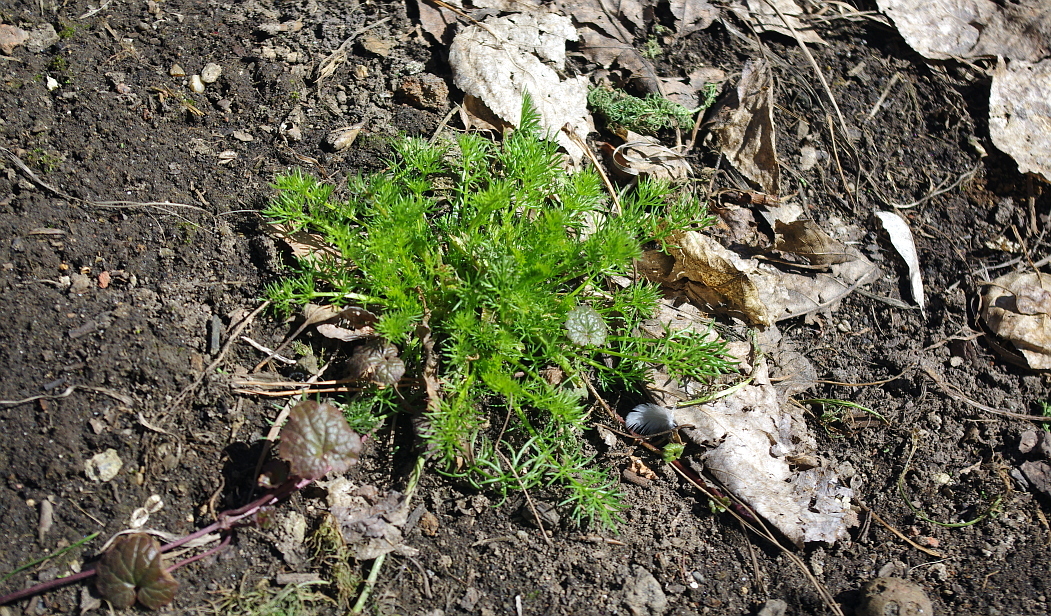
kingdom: Plantae
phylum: Tracheophyta
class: Magnoliopsida
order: Asterales
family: Asteraceae
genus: Tripleurospermum
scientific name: Tripleurospermum inodorum
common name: Scentless mayweed
